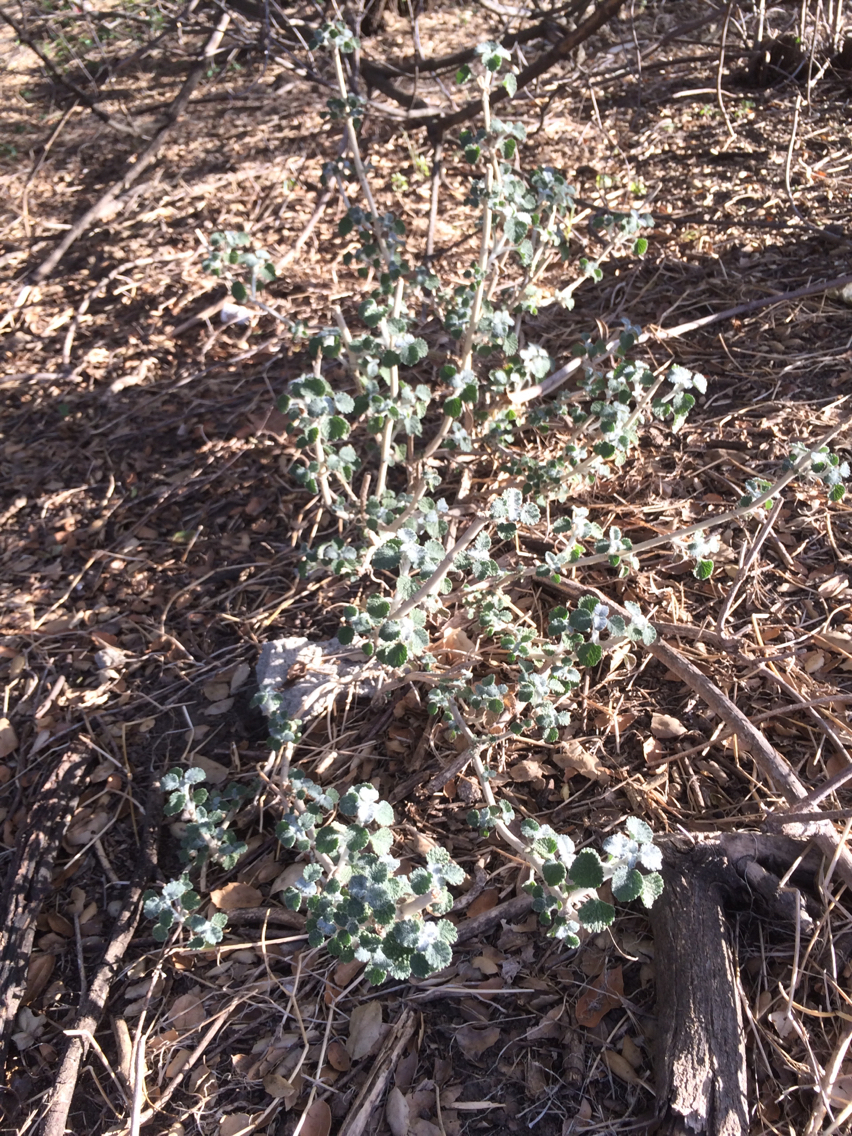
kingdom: Plantae
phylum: Tracheophyta
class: Magnoliopsida
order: Lamiales
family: Lamiaceae
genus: Marrubium
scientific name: Marrubium vulgare
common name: Horehound
